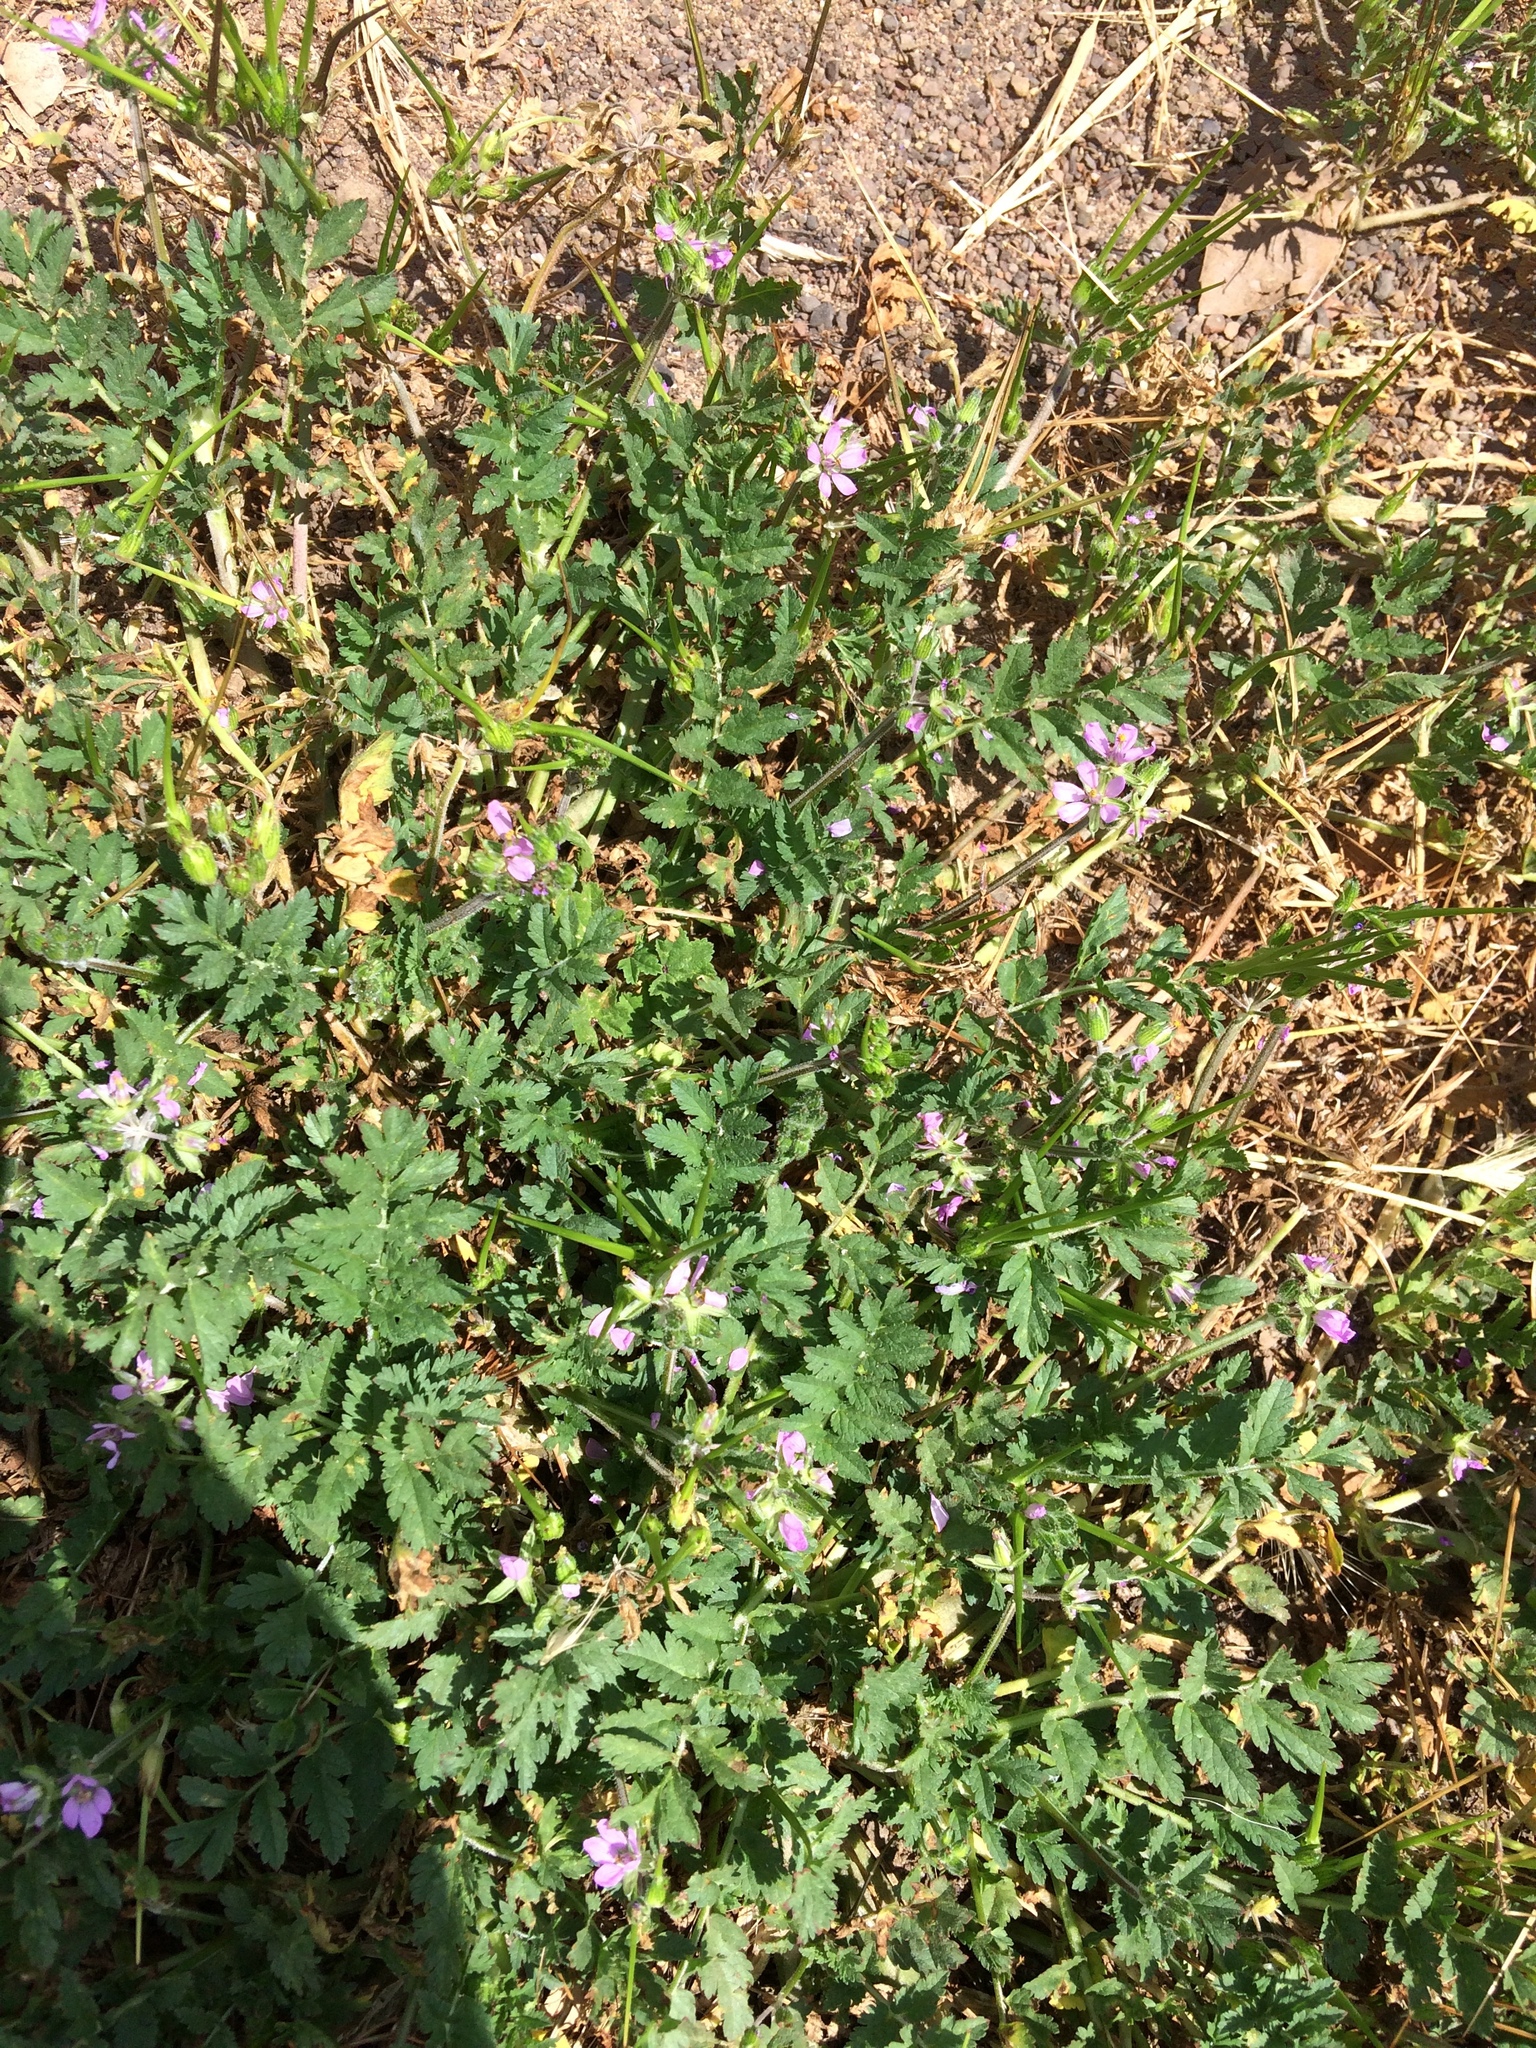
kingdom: Plantae
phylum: Tracheophyta
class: Magnoliopsida
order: Geraniales
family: Geraniaceae
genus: Erodium
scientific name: Erodium moschatum
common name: Musk stork's-bill
